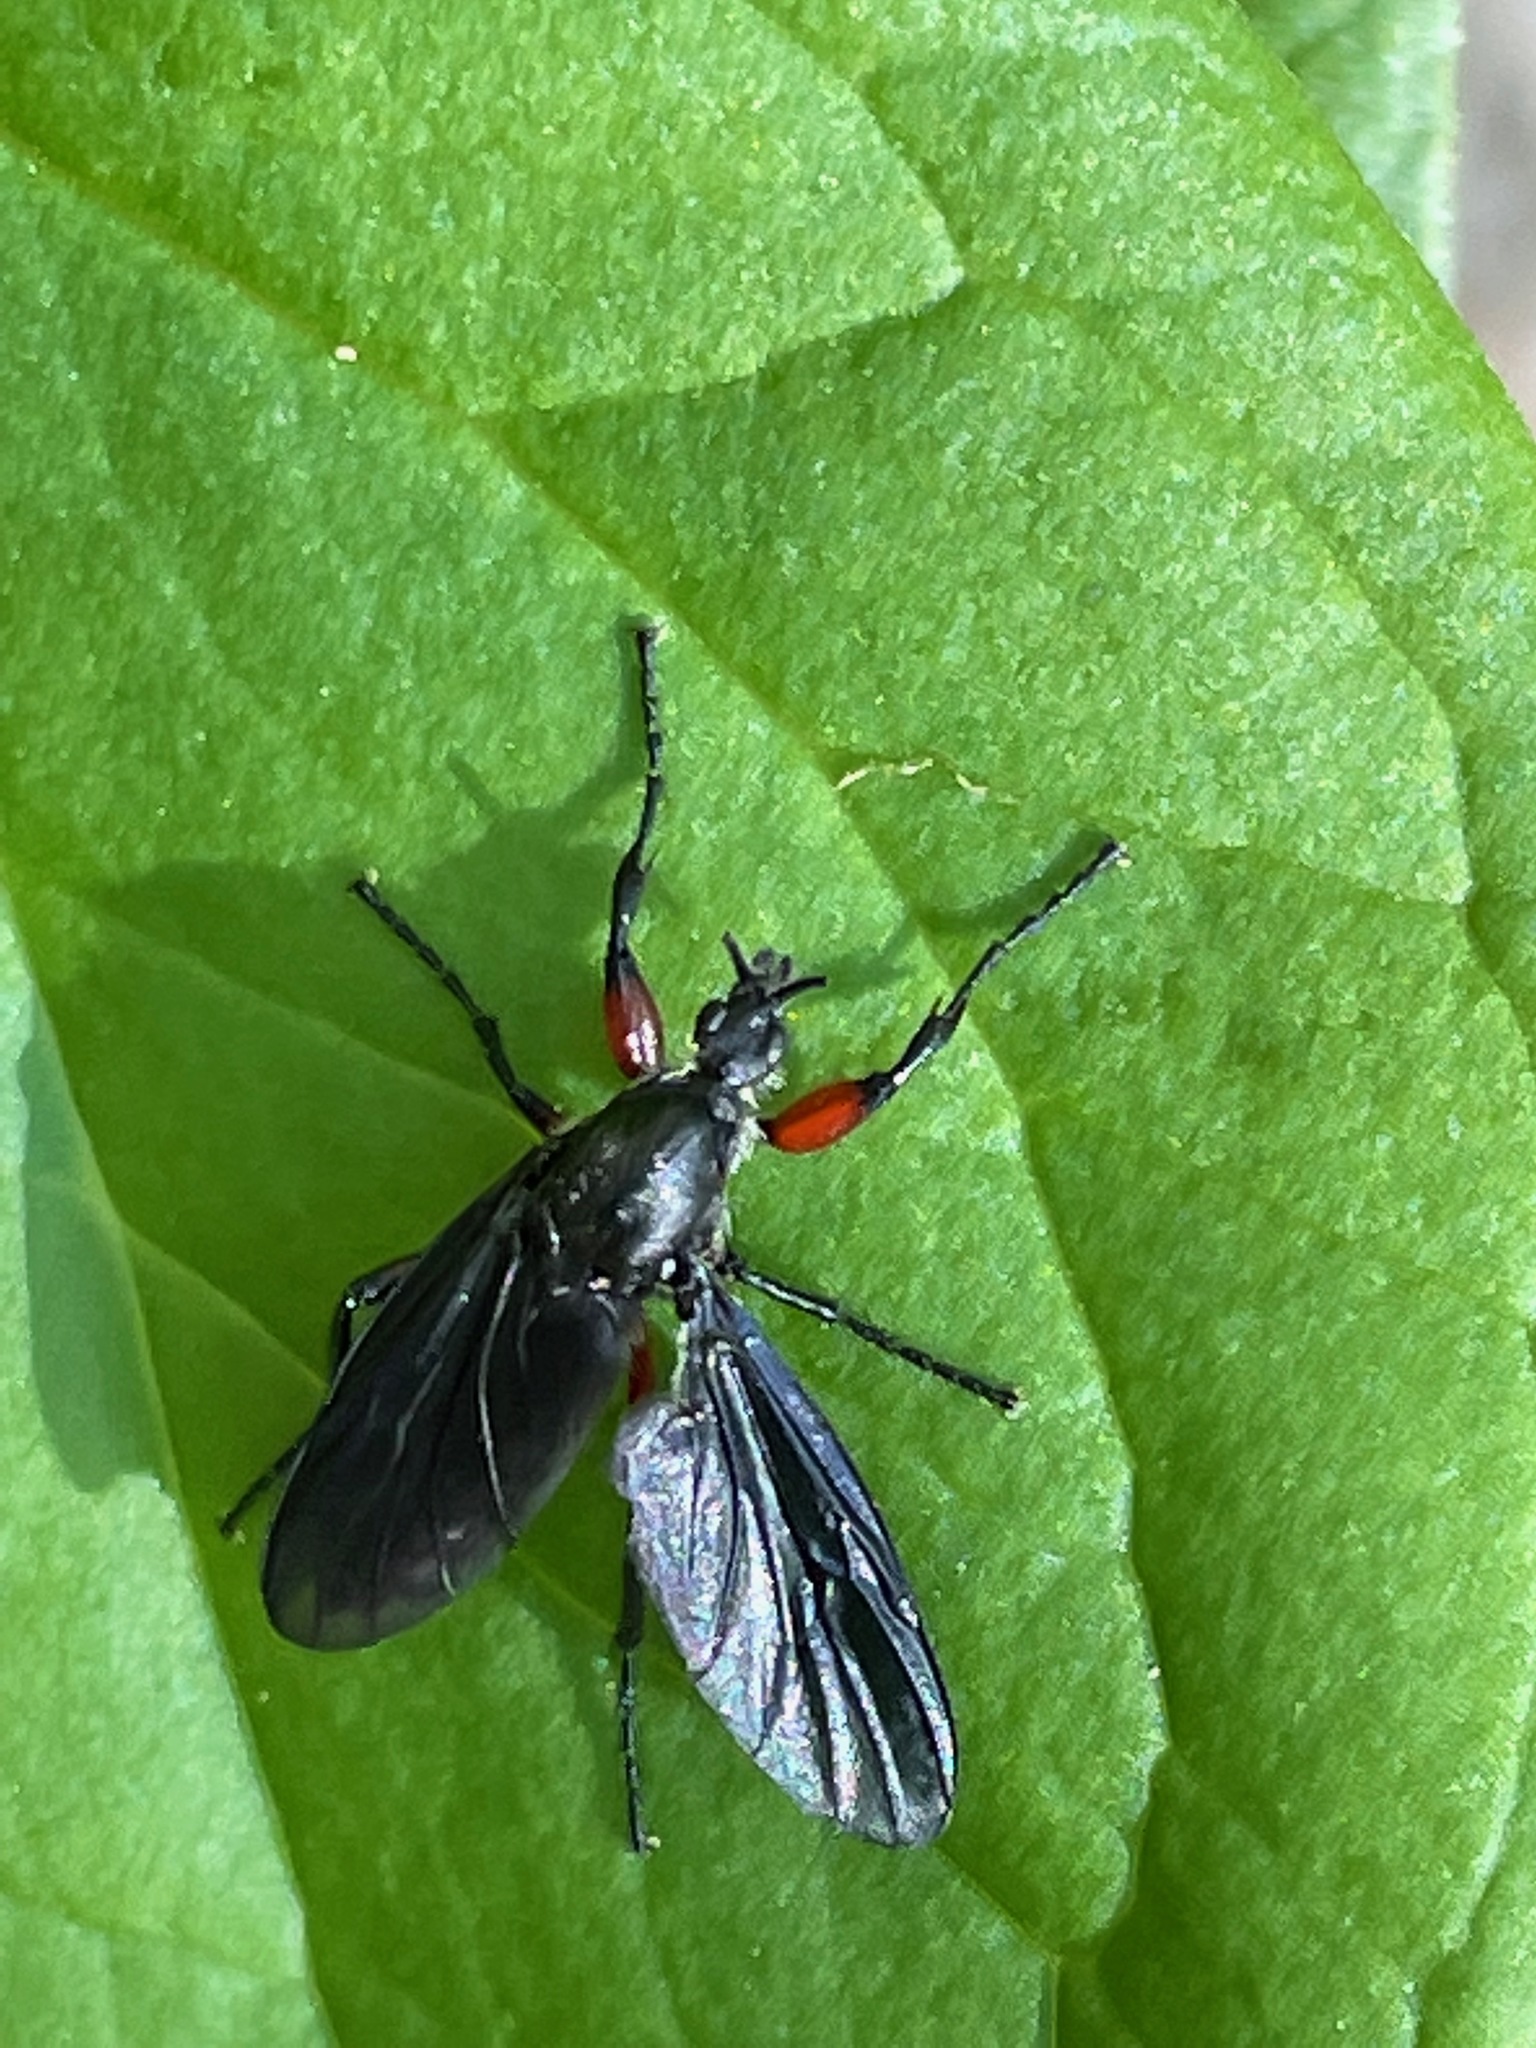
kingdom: Animalia
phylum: Arthropoda
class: Insecta
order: Diptera
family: Bibionidae
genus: Bibio
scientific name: Bibio femoratus
